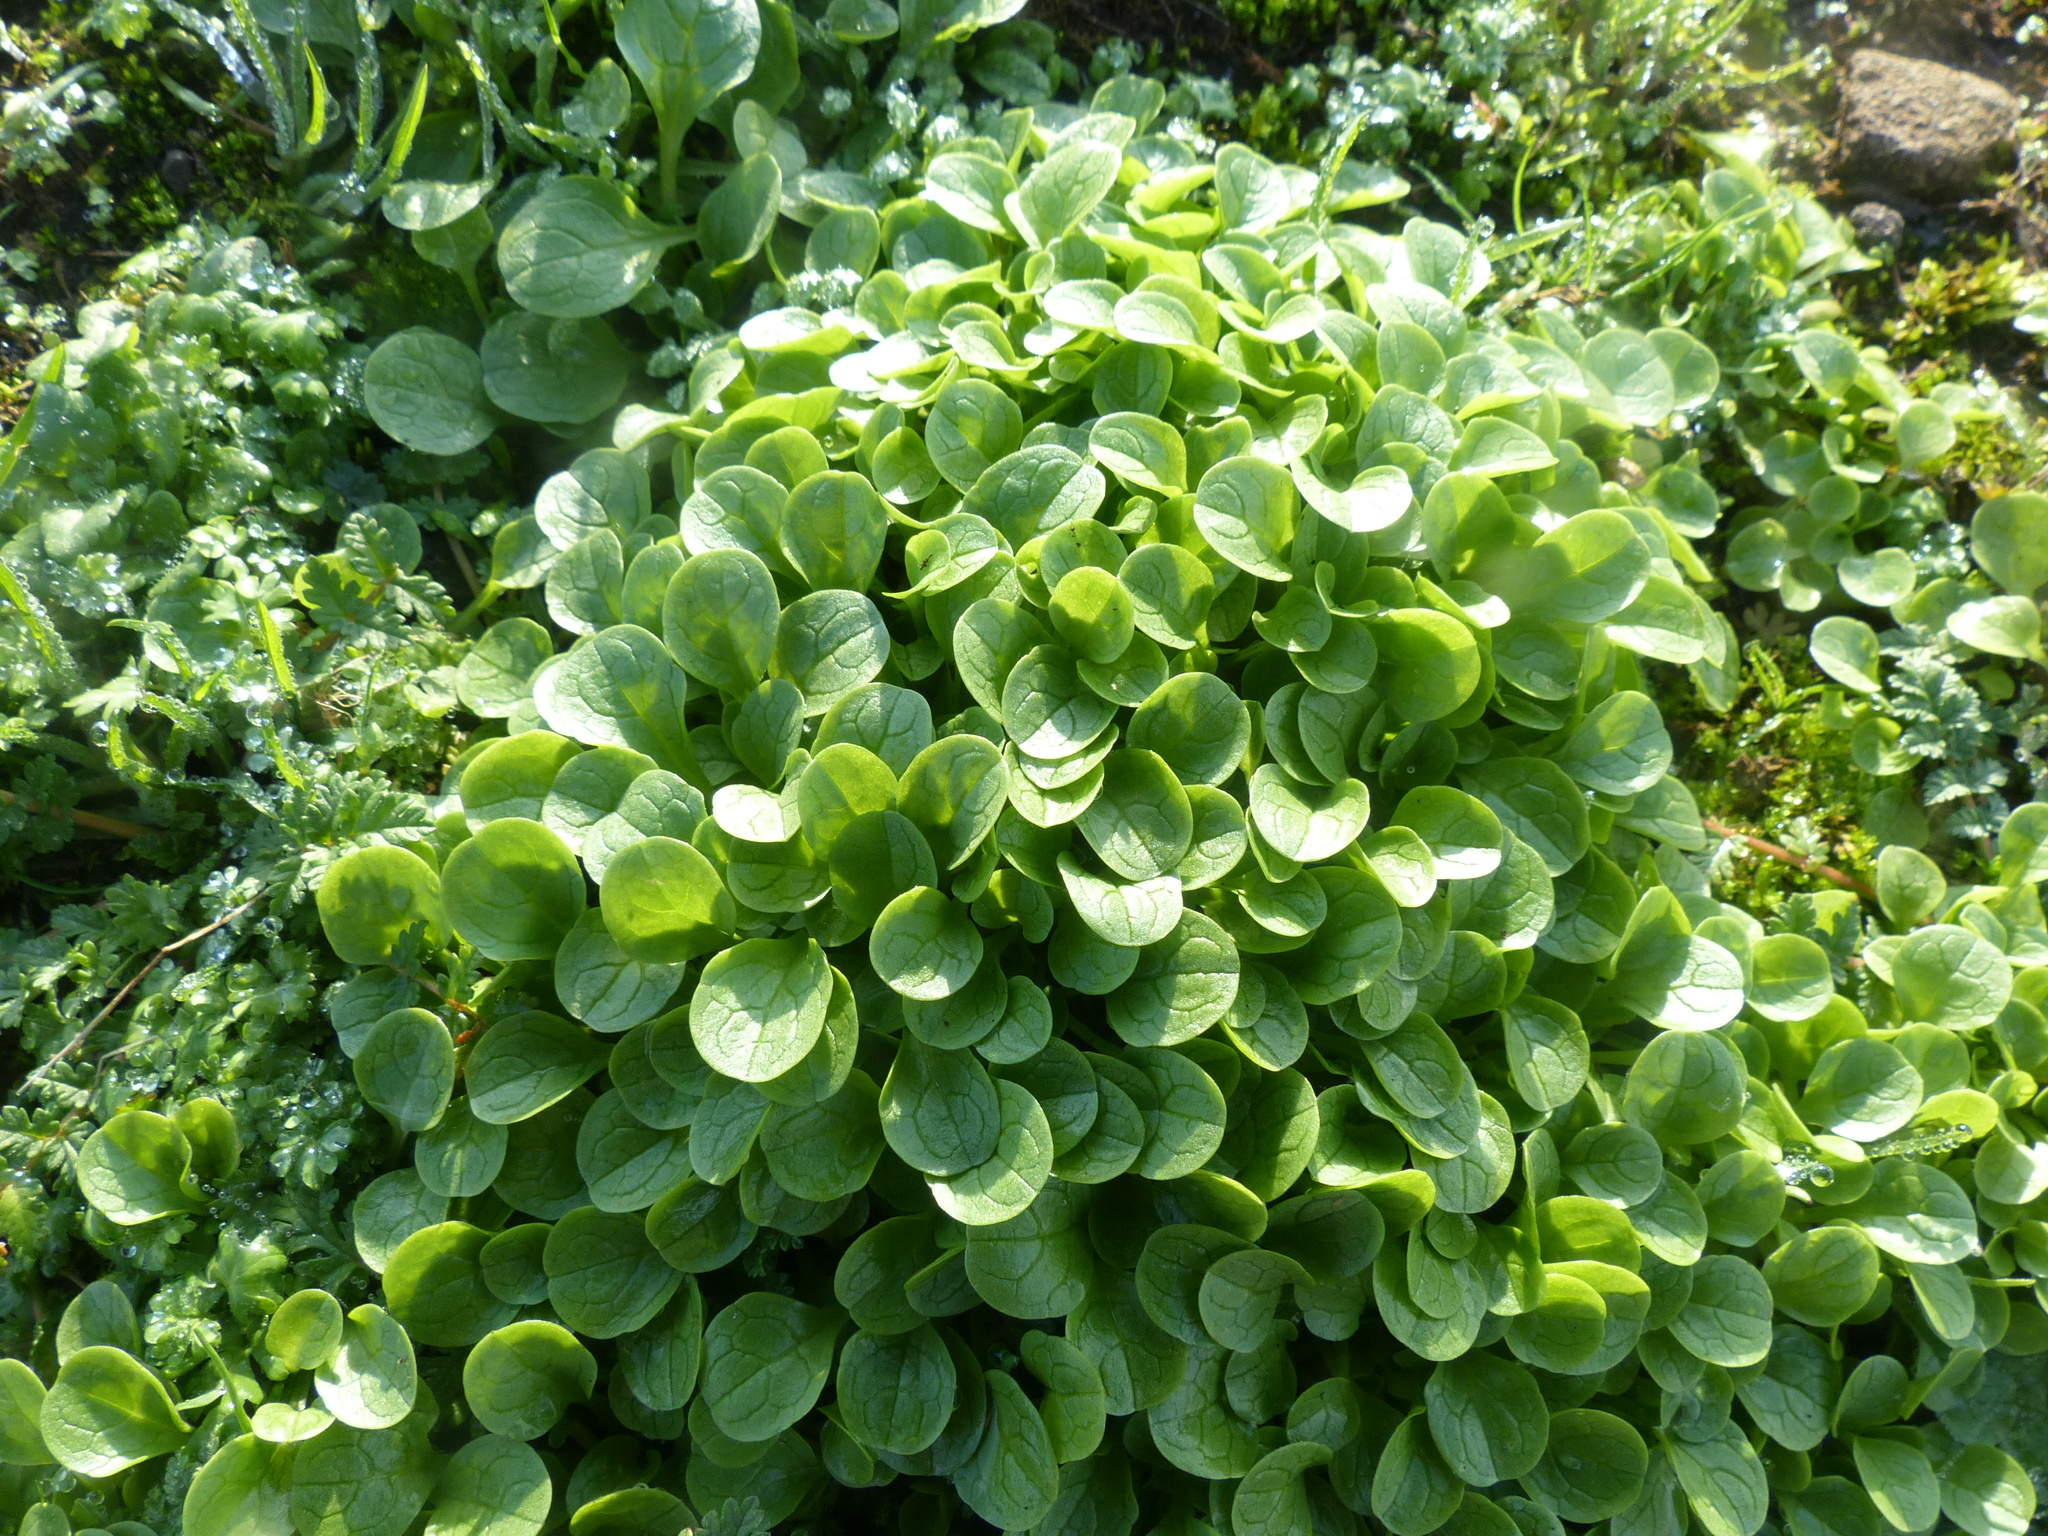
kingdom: Plantae
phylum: Tracheophyta
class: Magnoliopsida
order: Dipsacales
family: Caprifoliaceae
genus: Plectritis
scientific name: Plectritis congesta
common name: Pink plectritis
